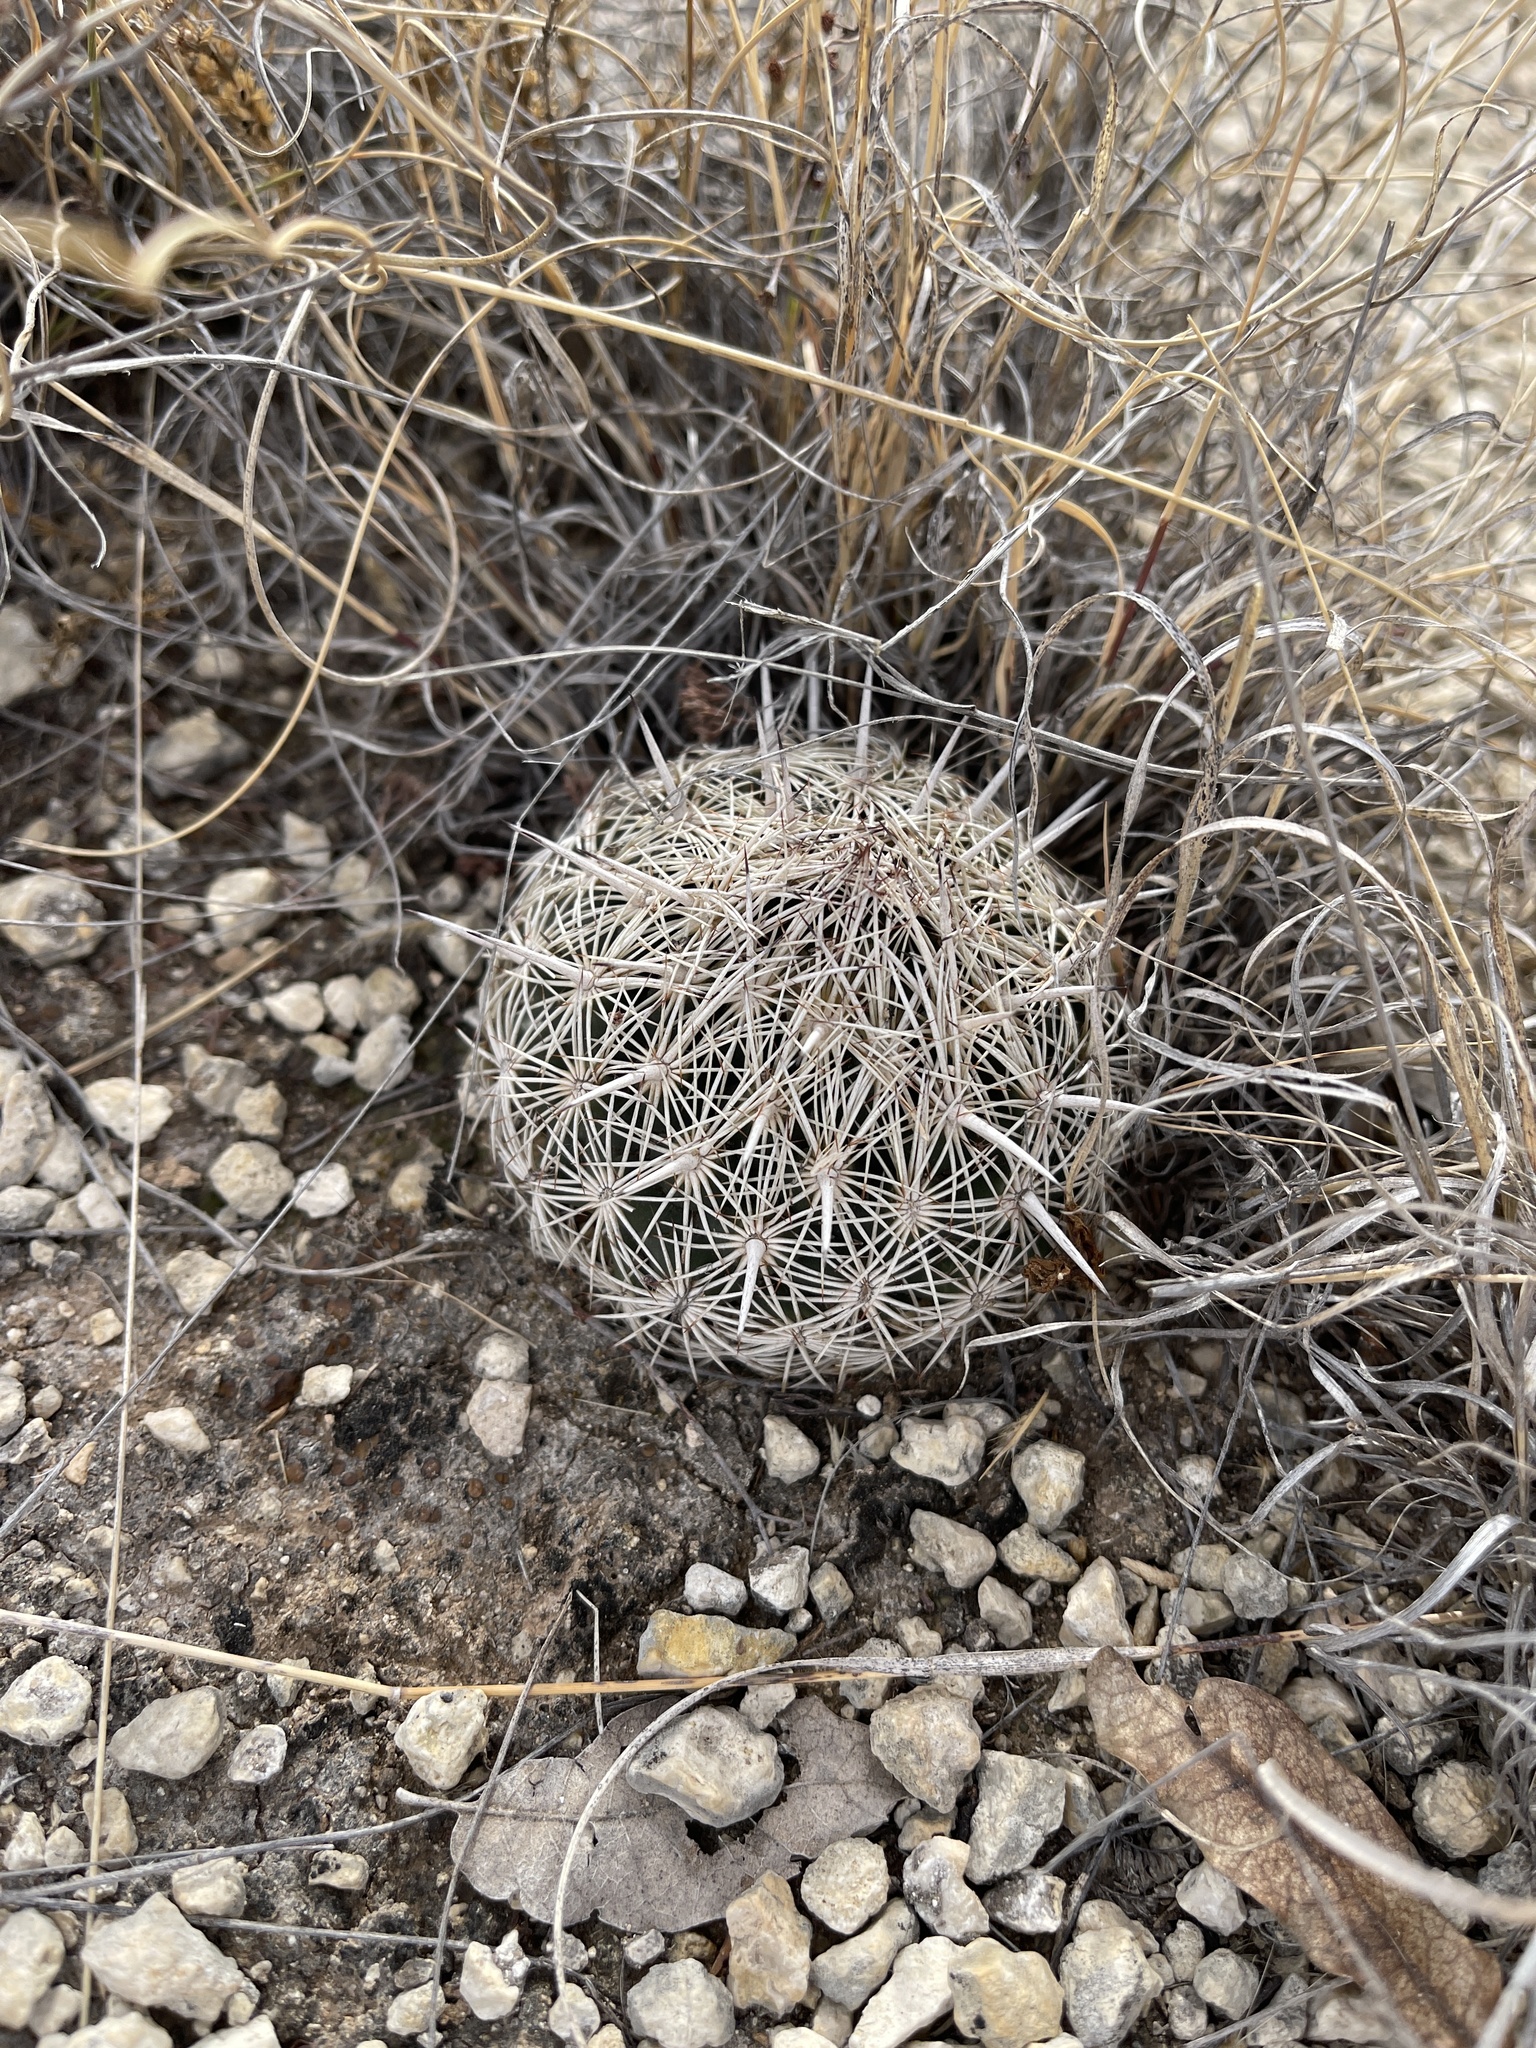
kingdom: Plantae
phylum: Tracheophyta
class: Magnoliopsida
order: Caryophyllales
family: Cactaceae
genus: Coryphantha
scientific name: Coryphantha echinus
